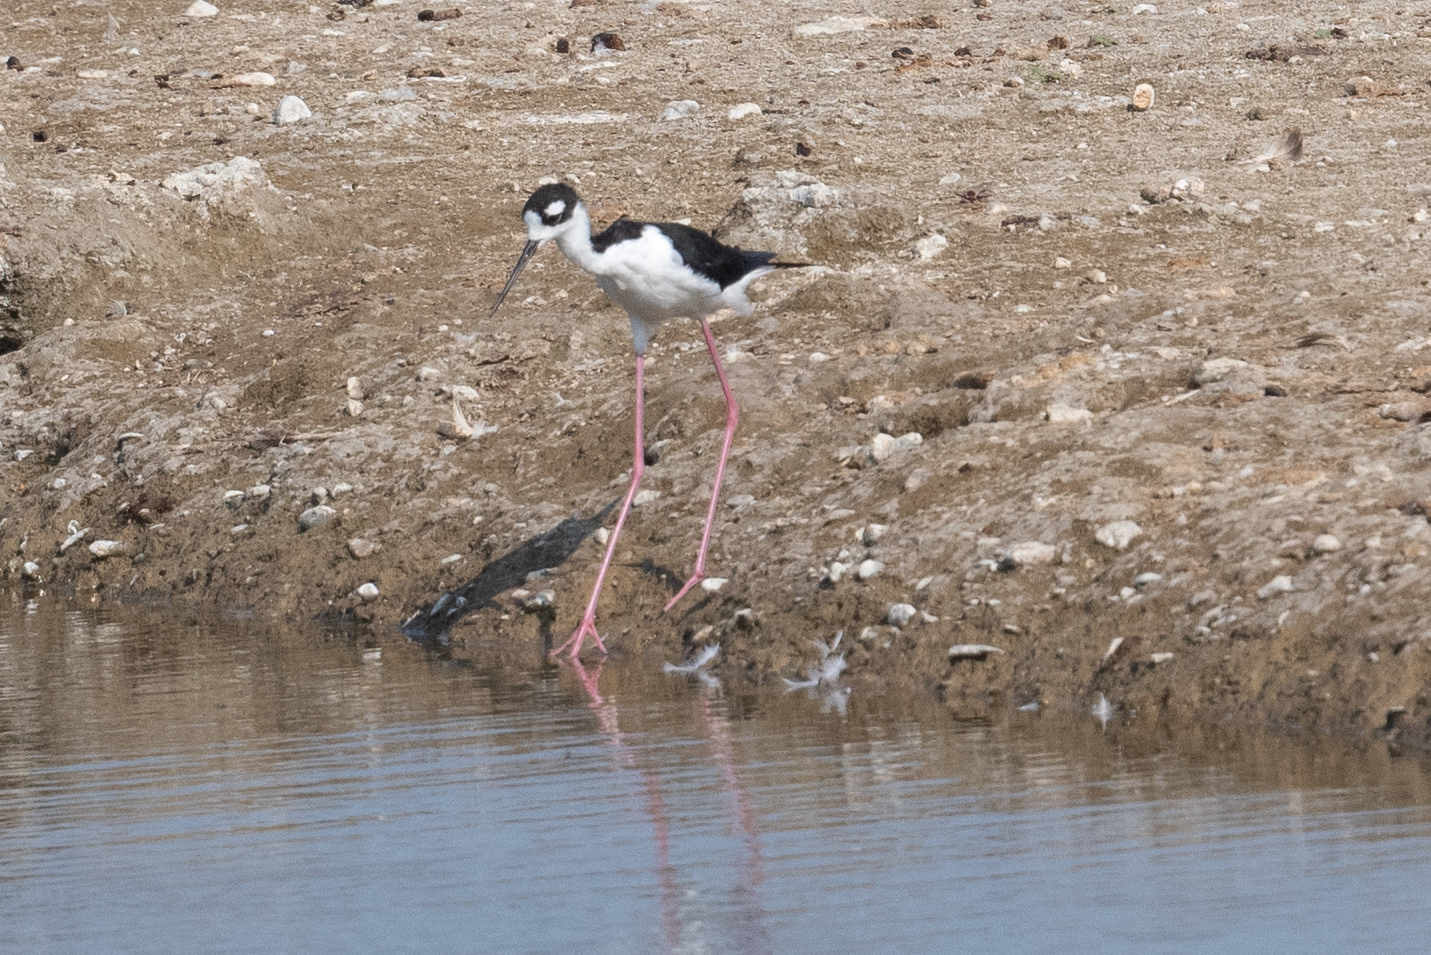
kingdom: Animalia
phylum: Chordata
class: Aves
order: Charadriiformes
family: Recurvirostridae
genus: Himantopus
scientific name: Himantopus mexicanus
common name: Black-necked stilt
